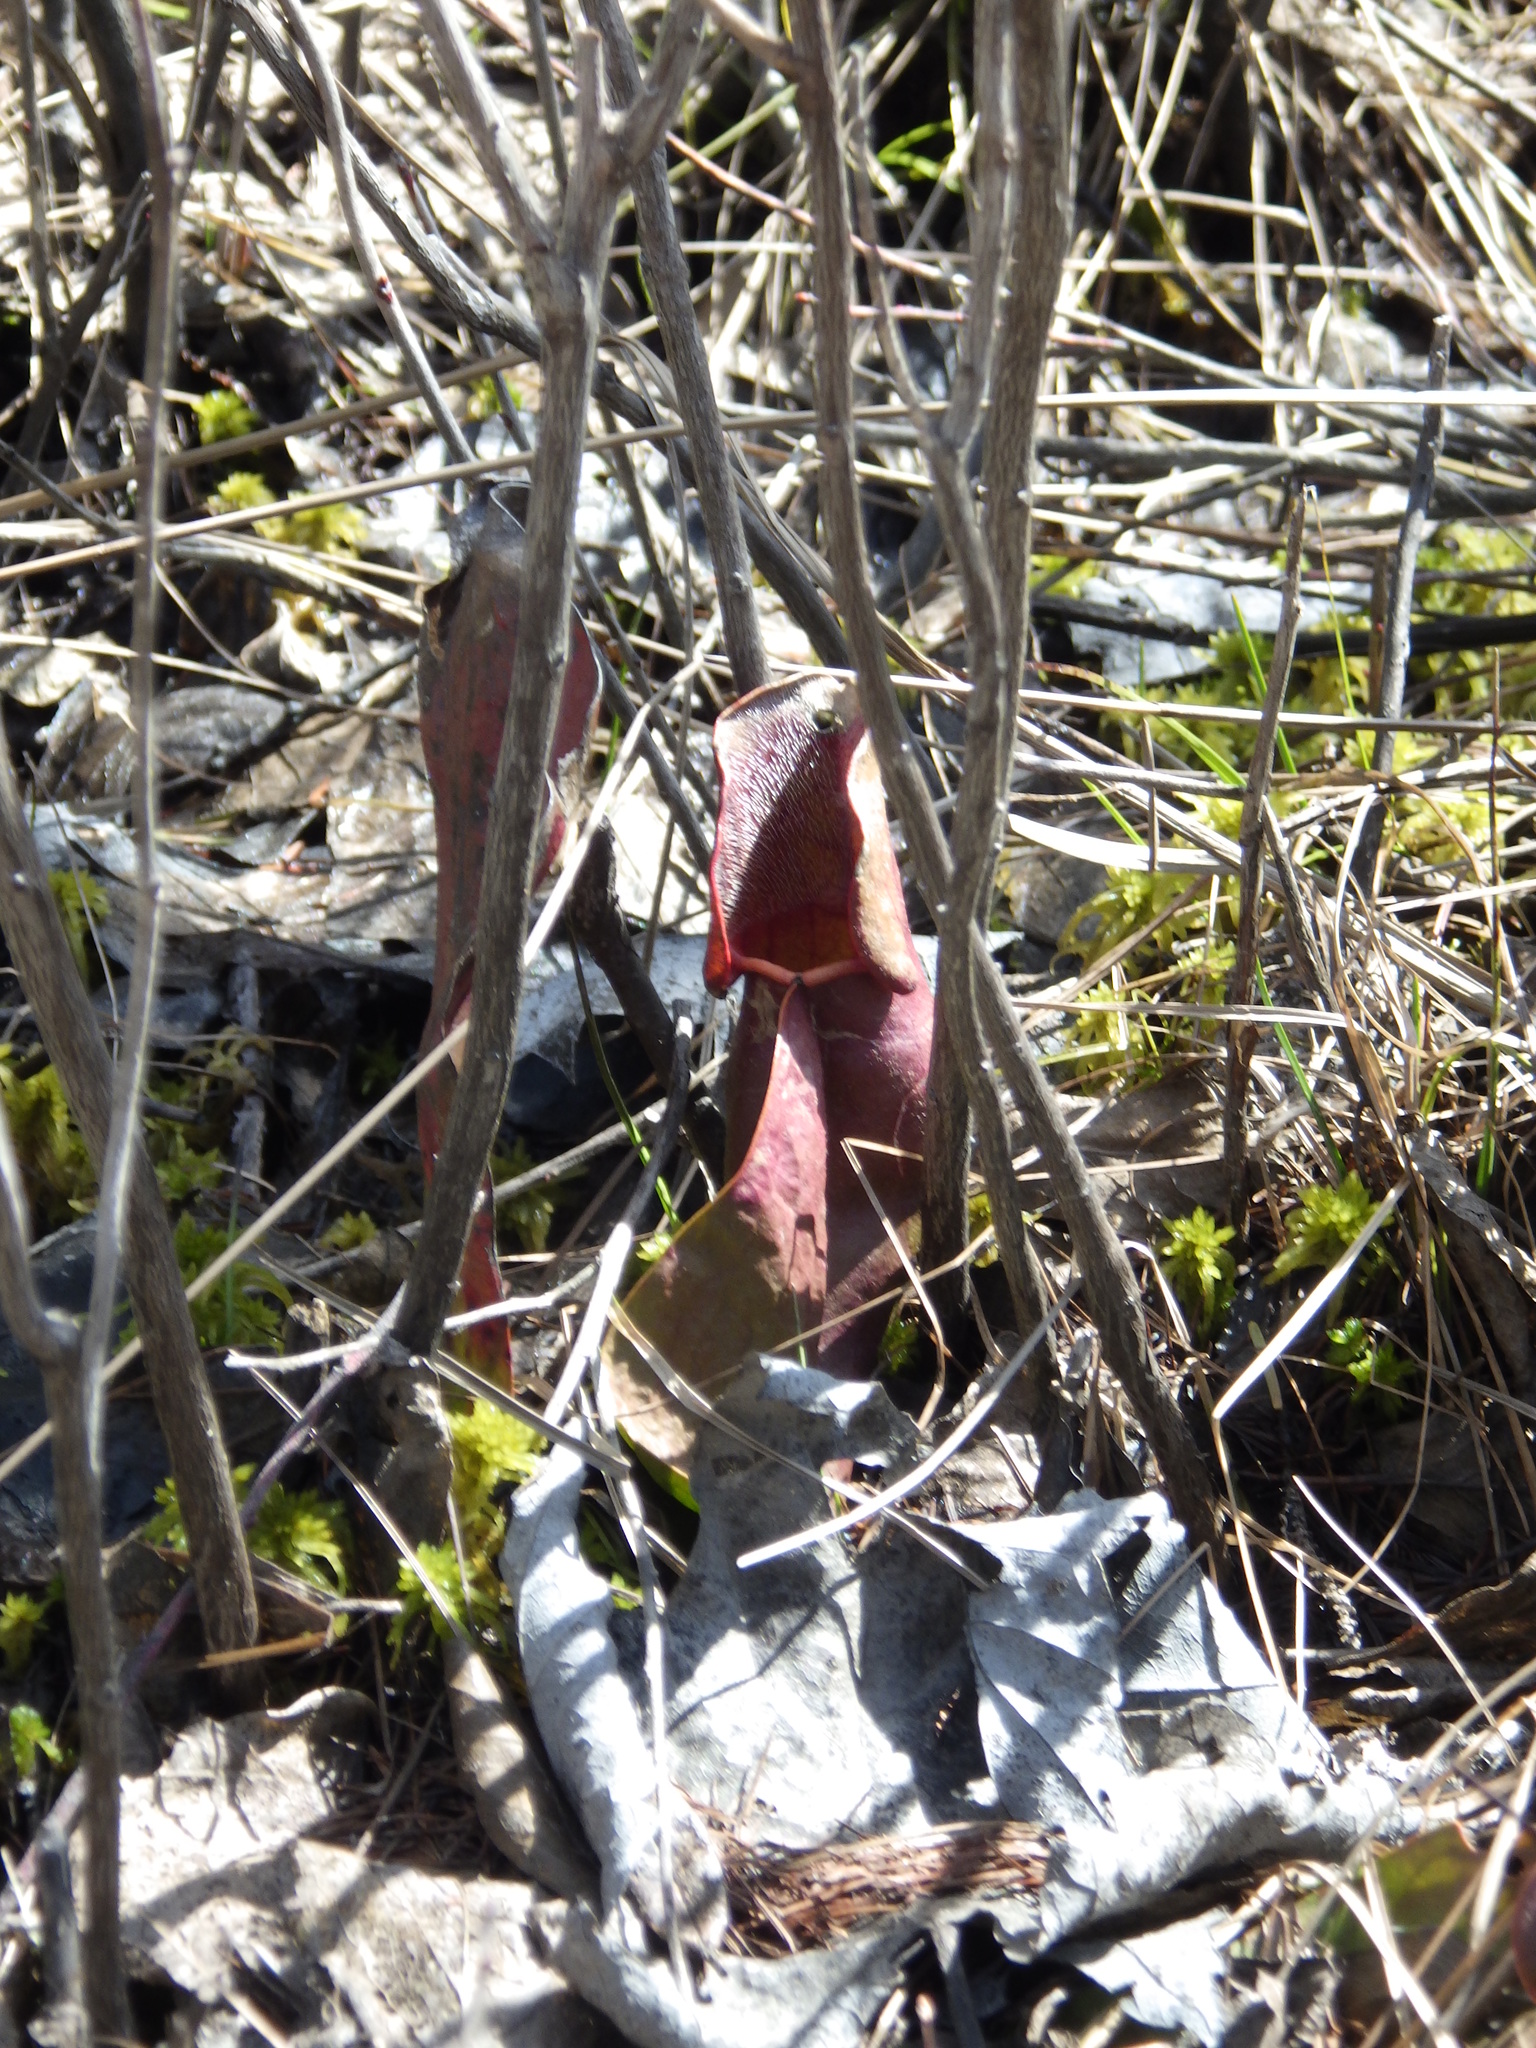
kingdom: Plantae
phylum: Tracheophyta
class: Magnoliopsida
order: Ericales
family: Sarraceniaceae
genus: Sarracenia
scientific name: Sarracenia purpurea
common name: Pitcherplant
